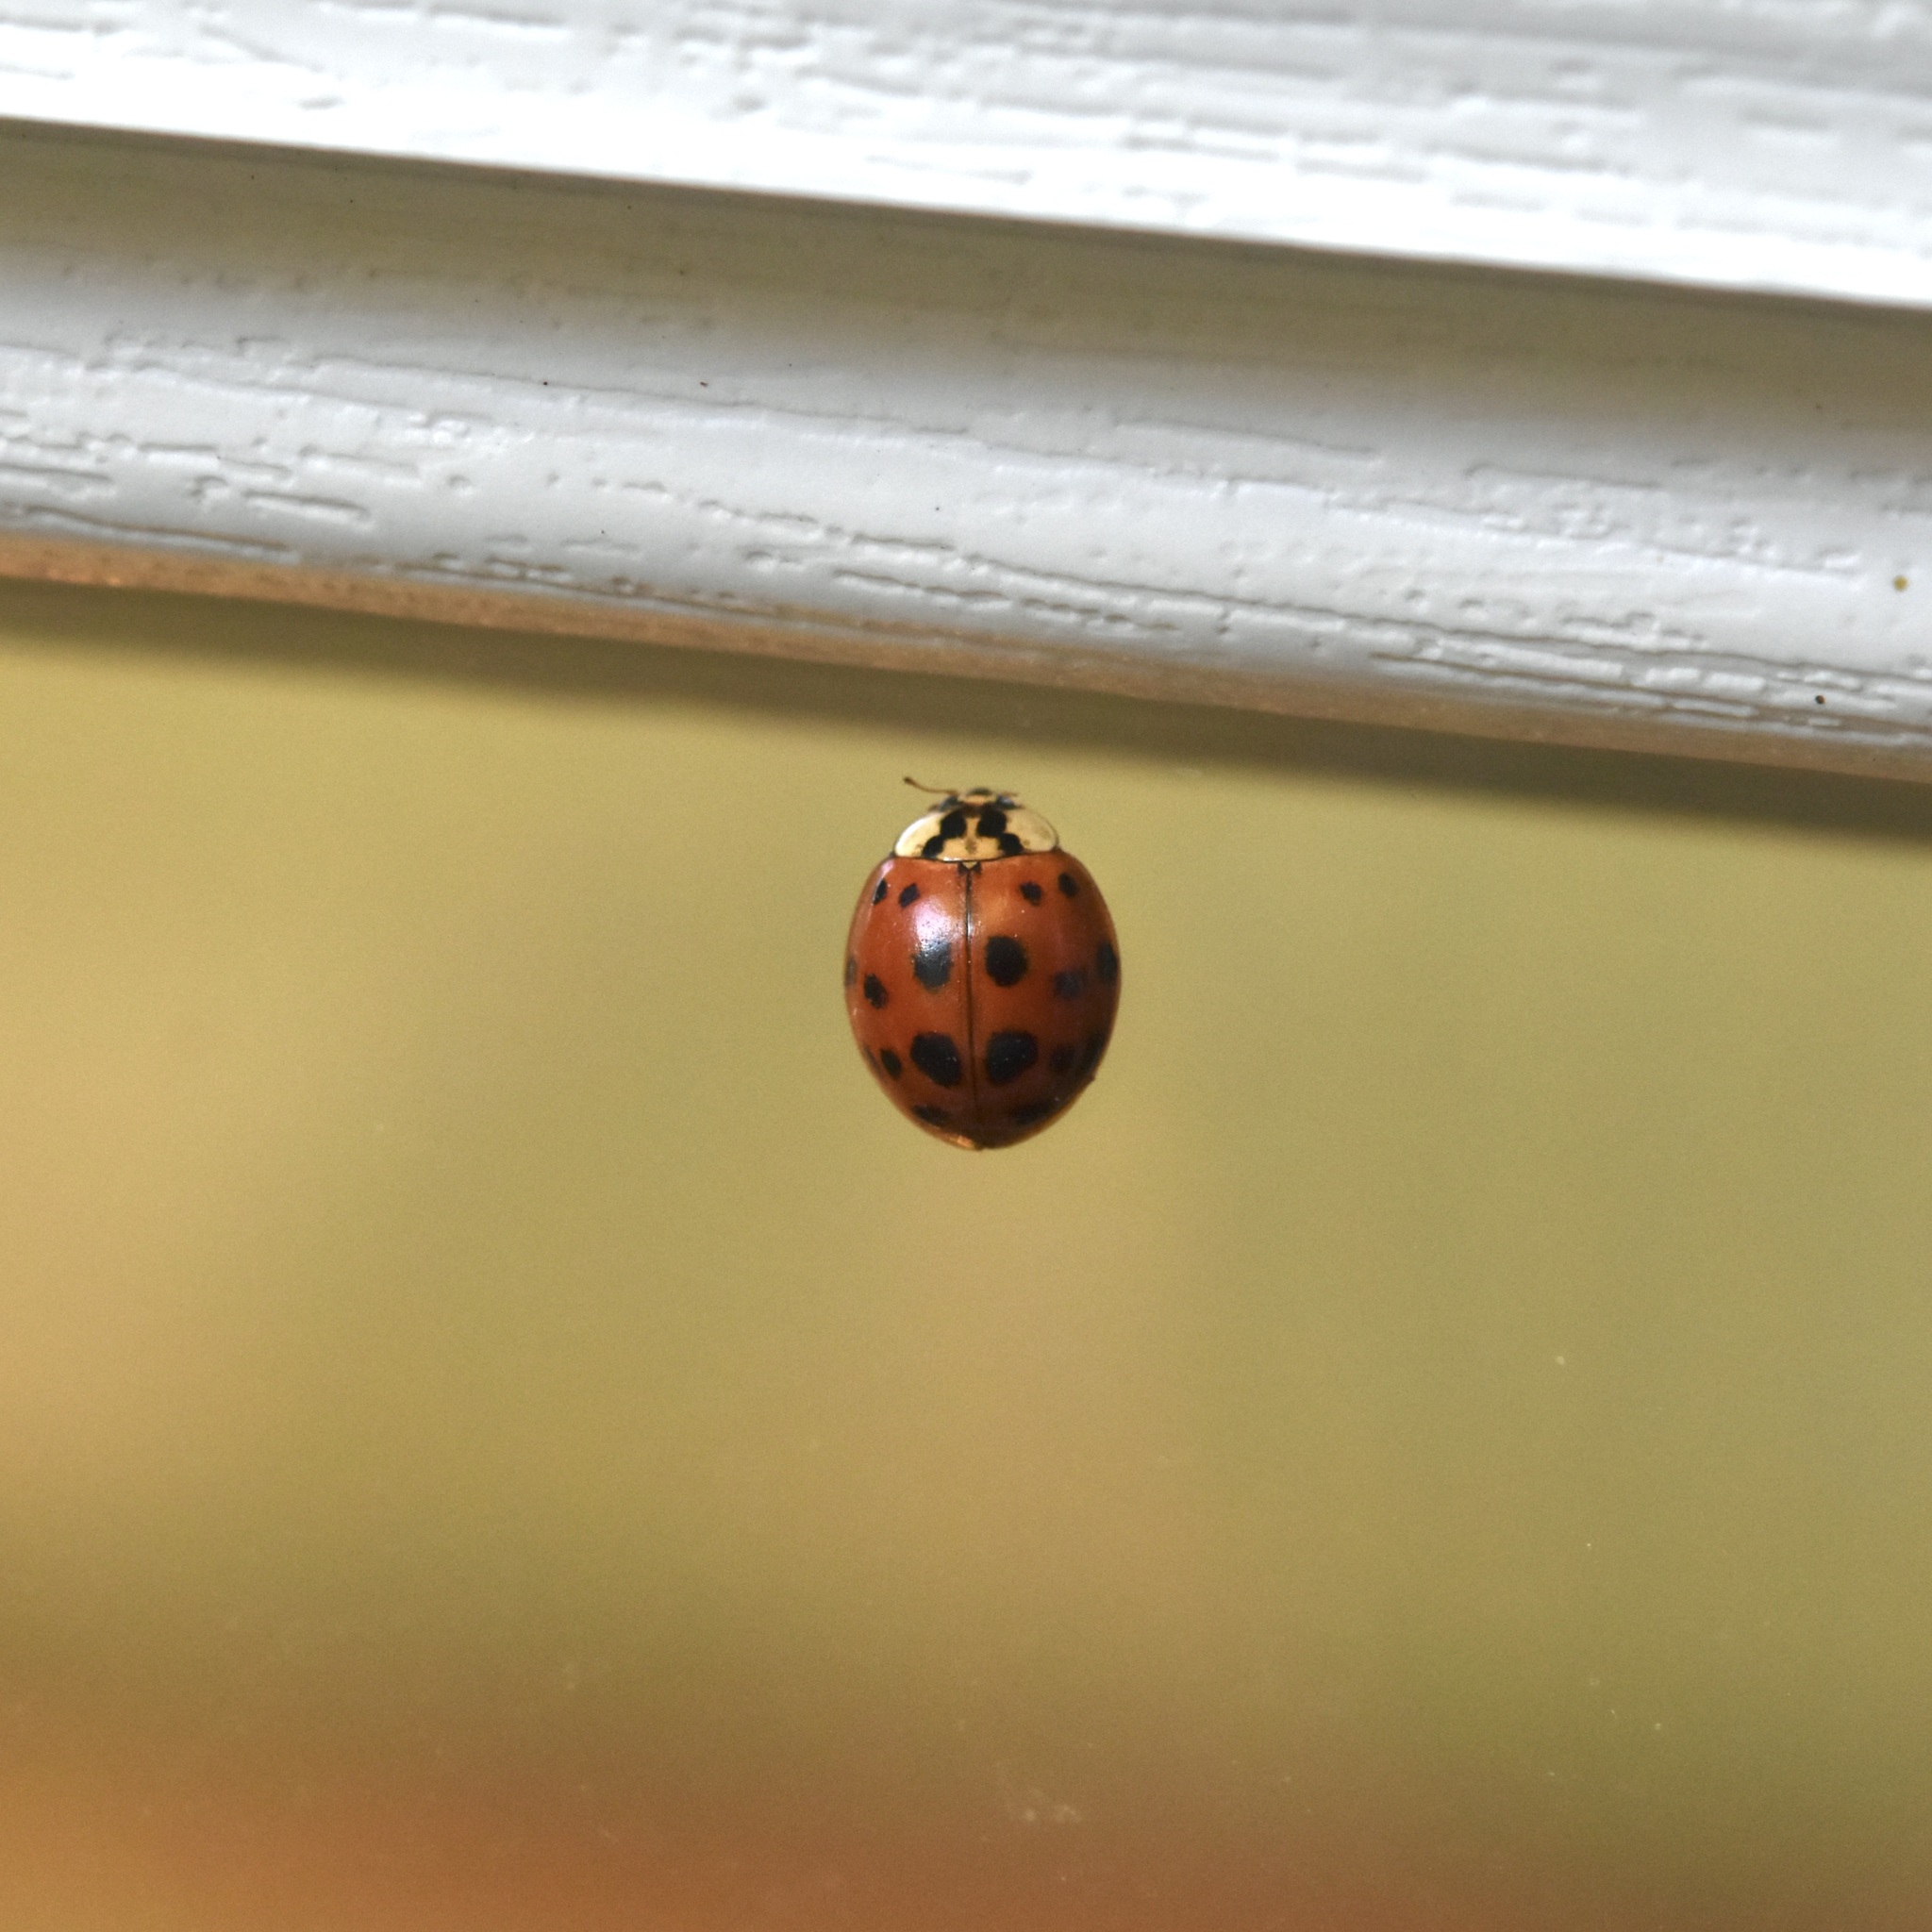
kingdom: Animalia
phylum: Arthropoda
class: Insecta
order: Coleoptera
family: Coccinellidae
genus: Harmonia
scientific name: Harmonia axyridis
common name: Harlequin ladybird
